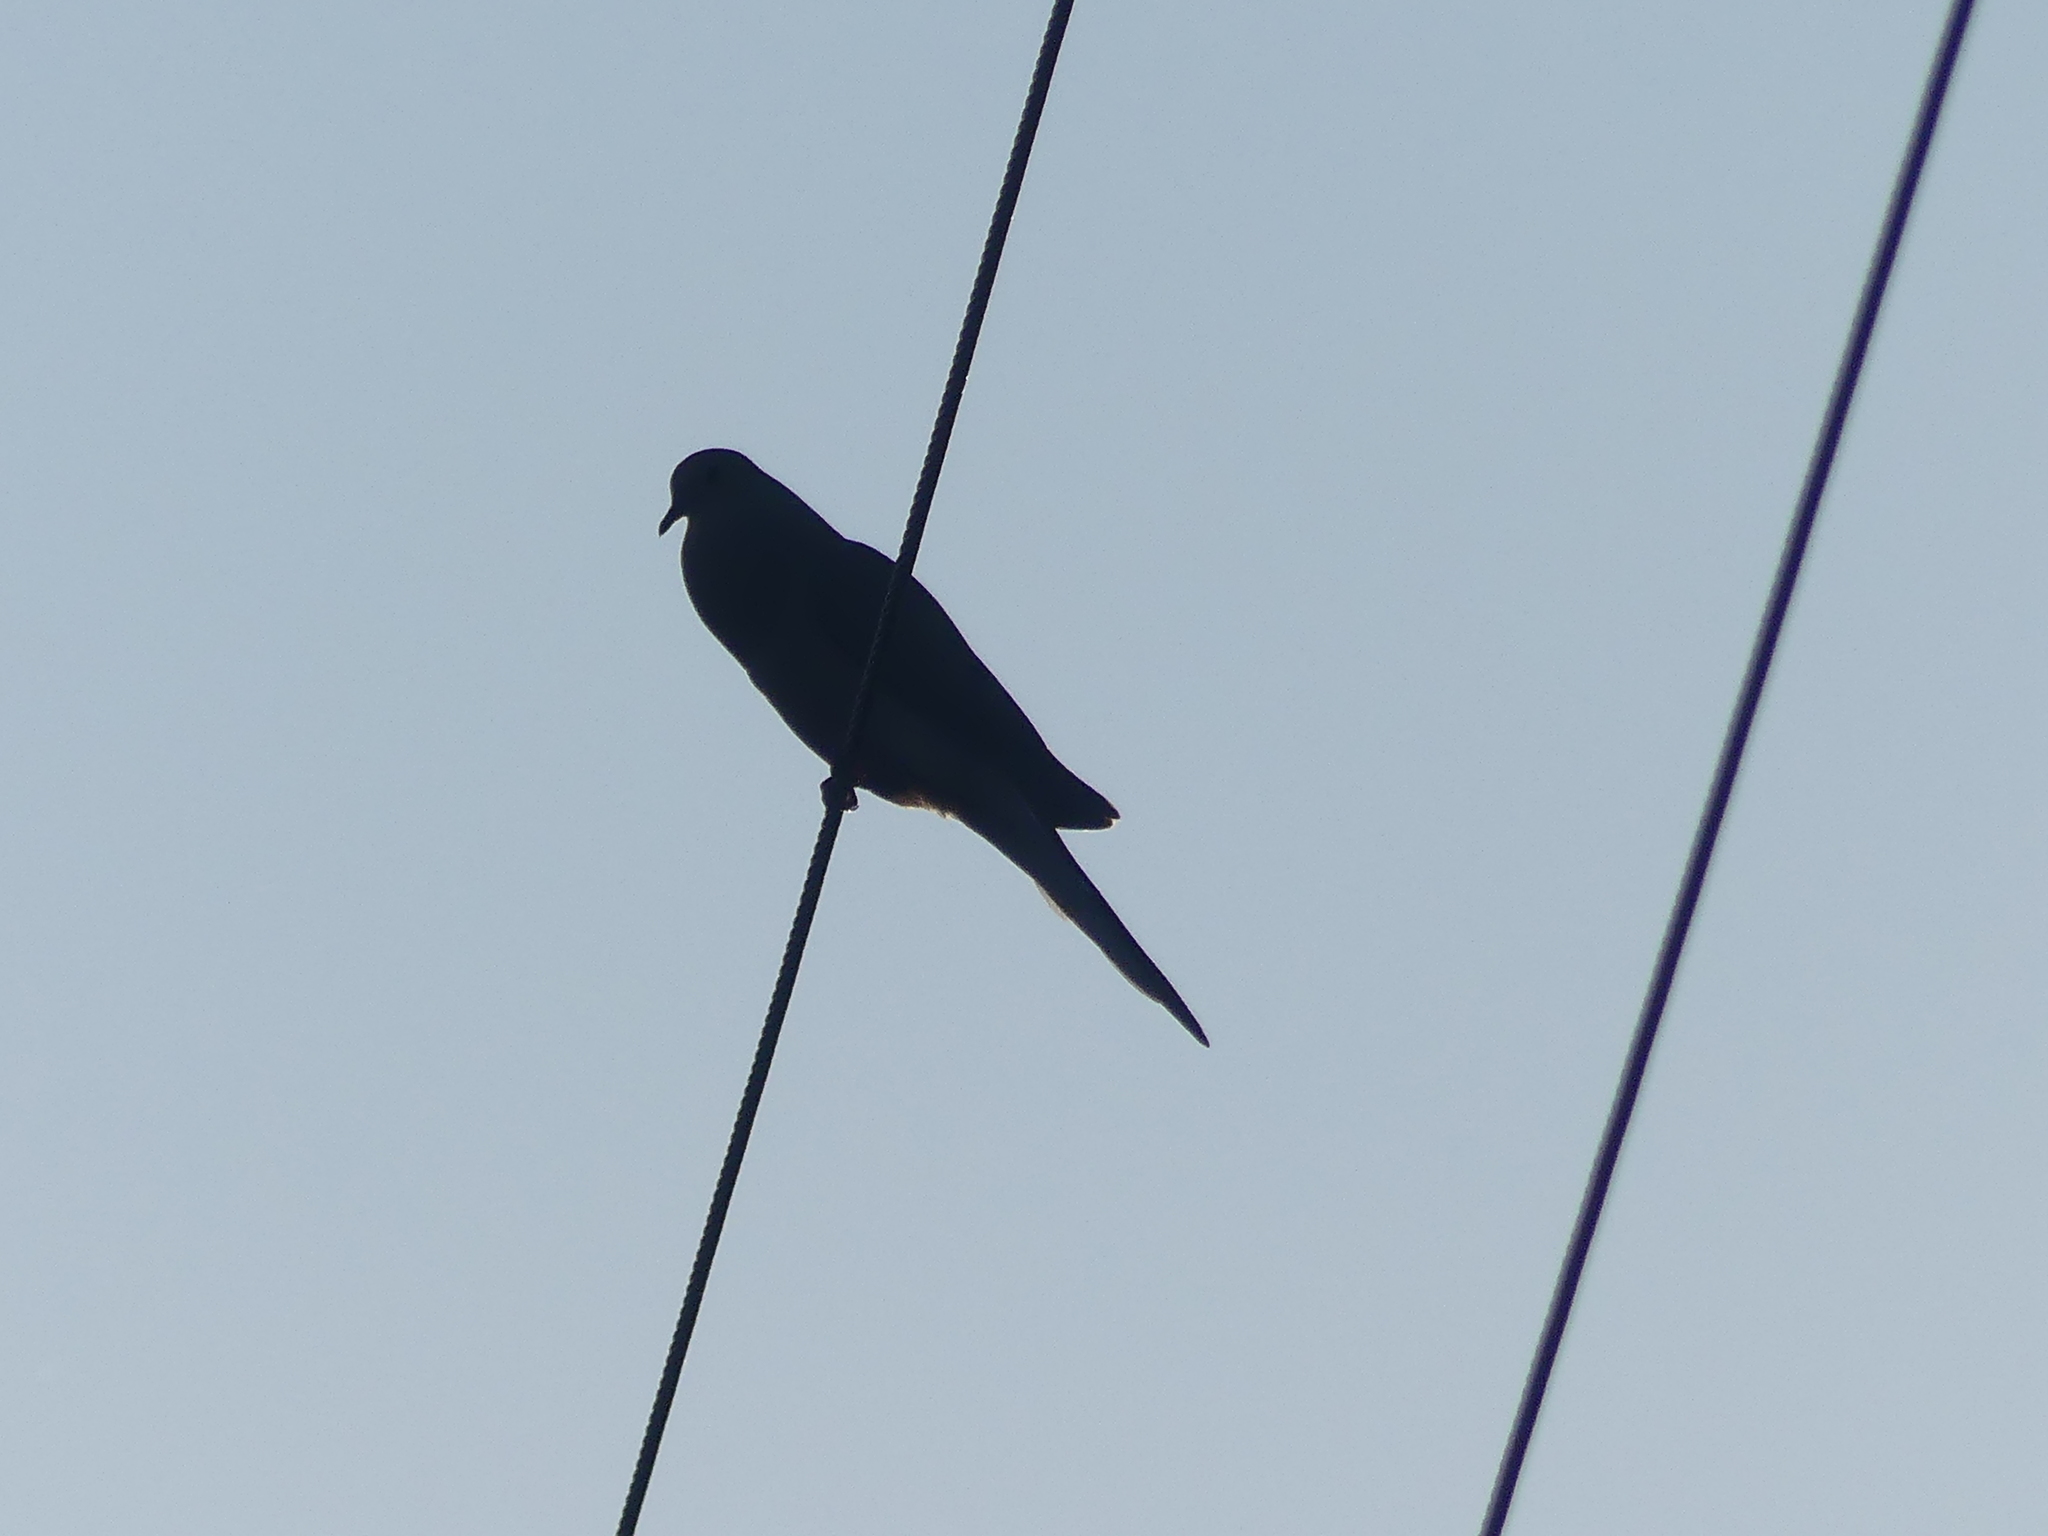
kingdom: Animalia
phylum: Chordata
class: Aves
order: Columbiformes
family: Columbidae
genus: Zenaida
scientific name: Zenaida macroura
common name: Mourning dove
